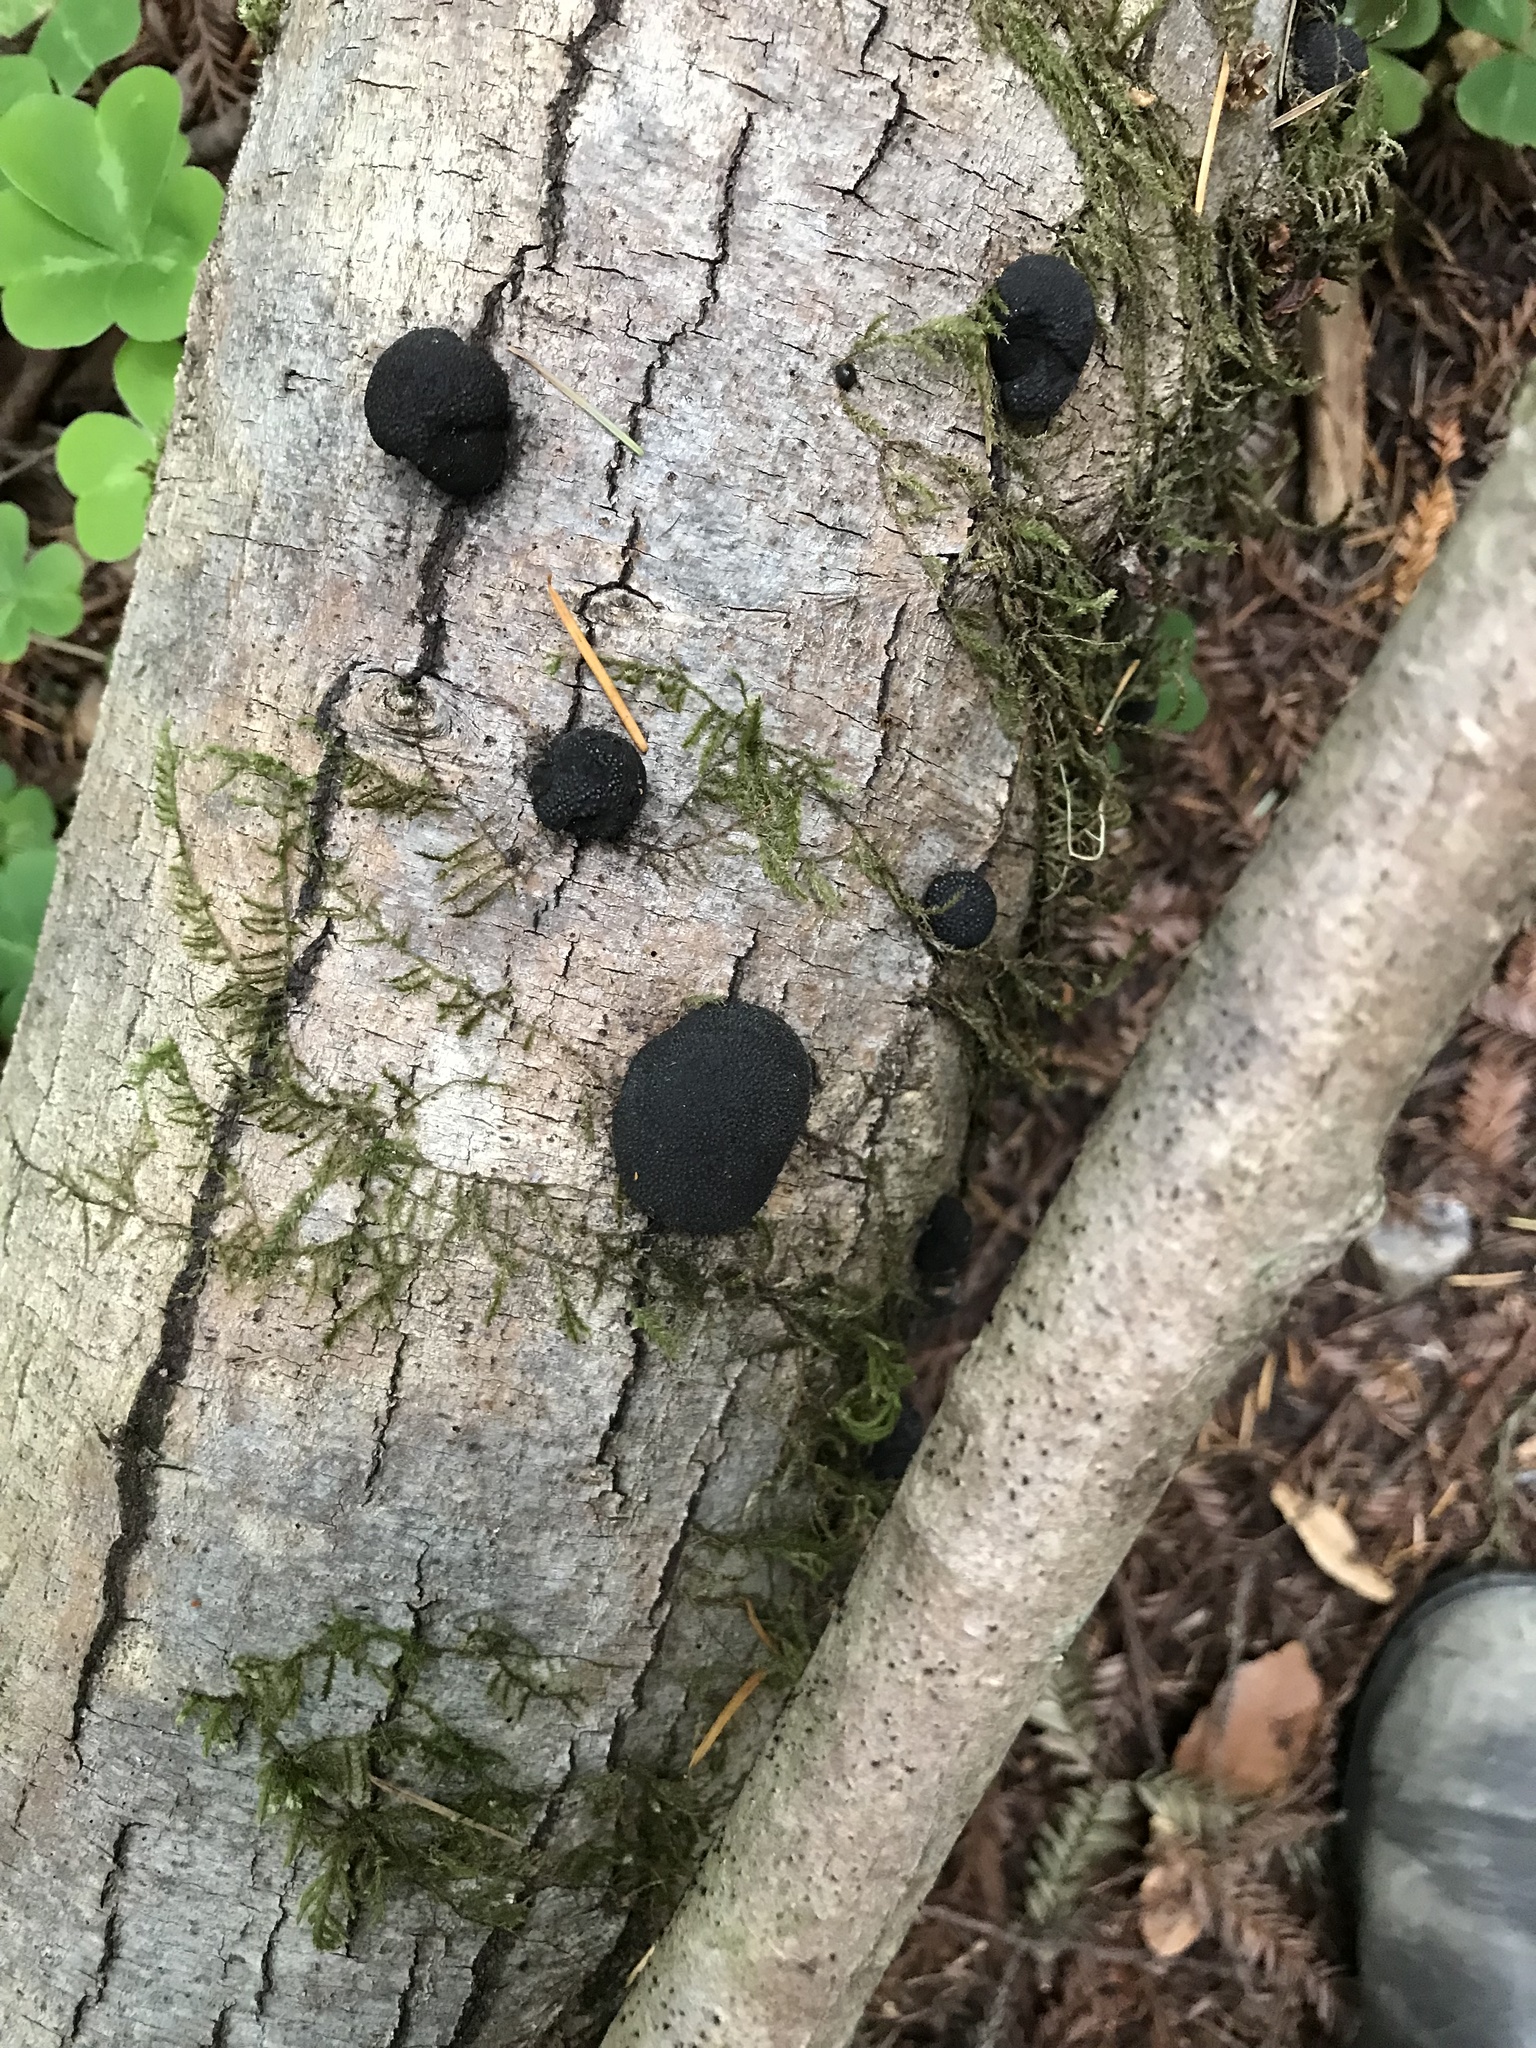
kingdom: Fungi
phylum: Ascomycota
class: Sordariomycetes
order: Xylariales
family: Hypoxylaceae
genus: Annulohypoxylon
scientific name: Annulohypoxylon thouarsianum
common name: Cramp balls
